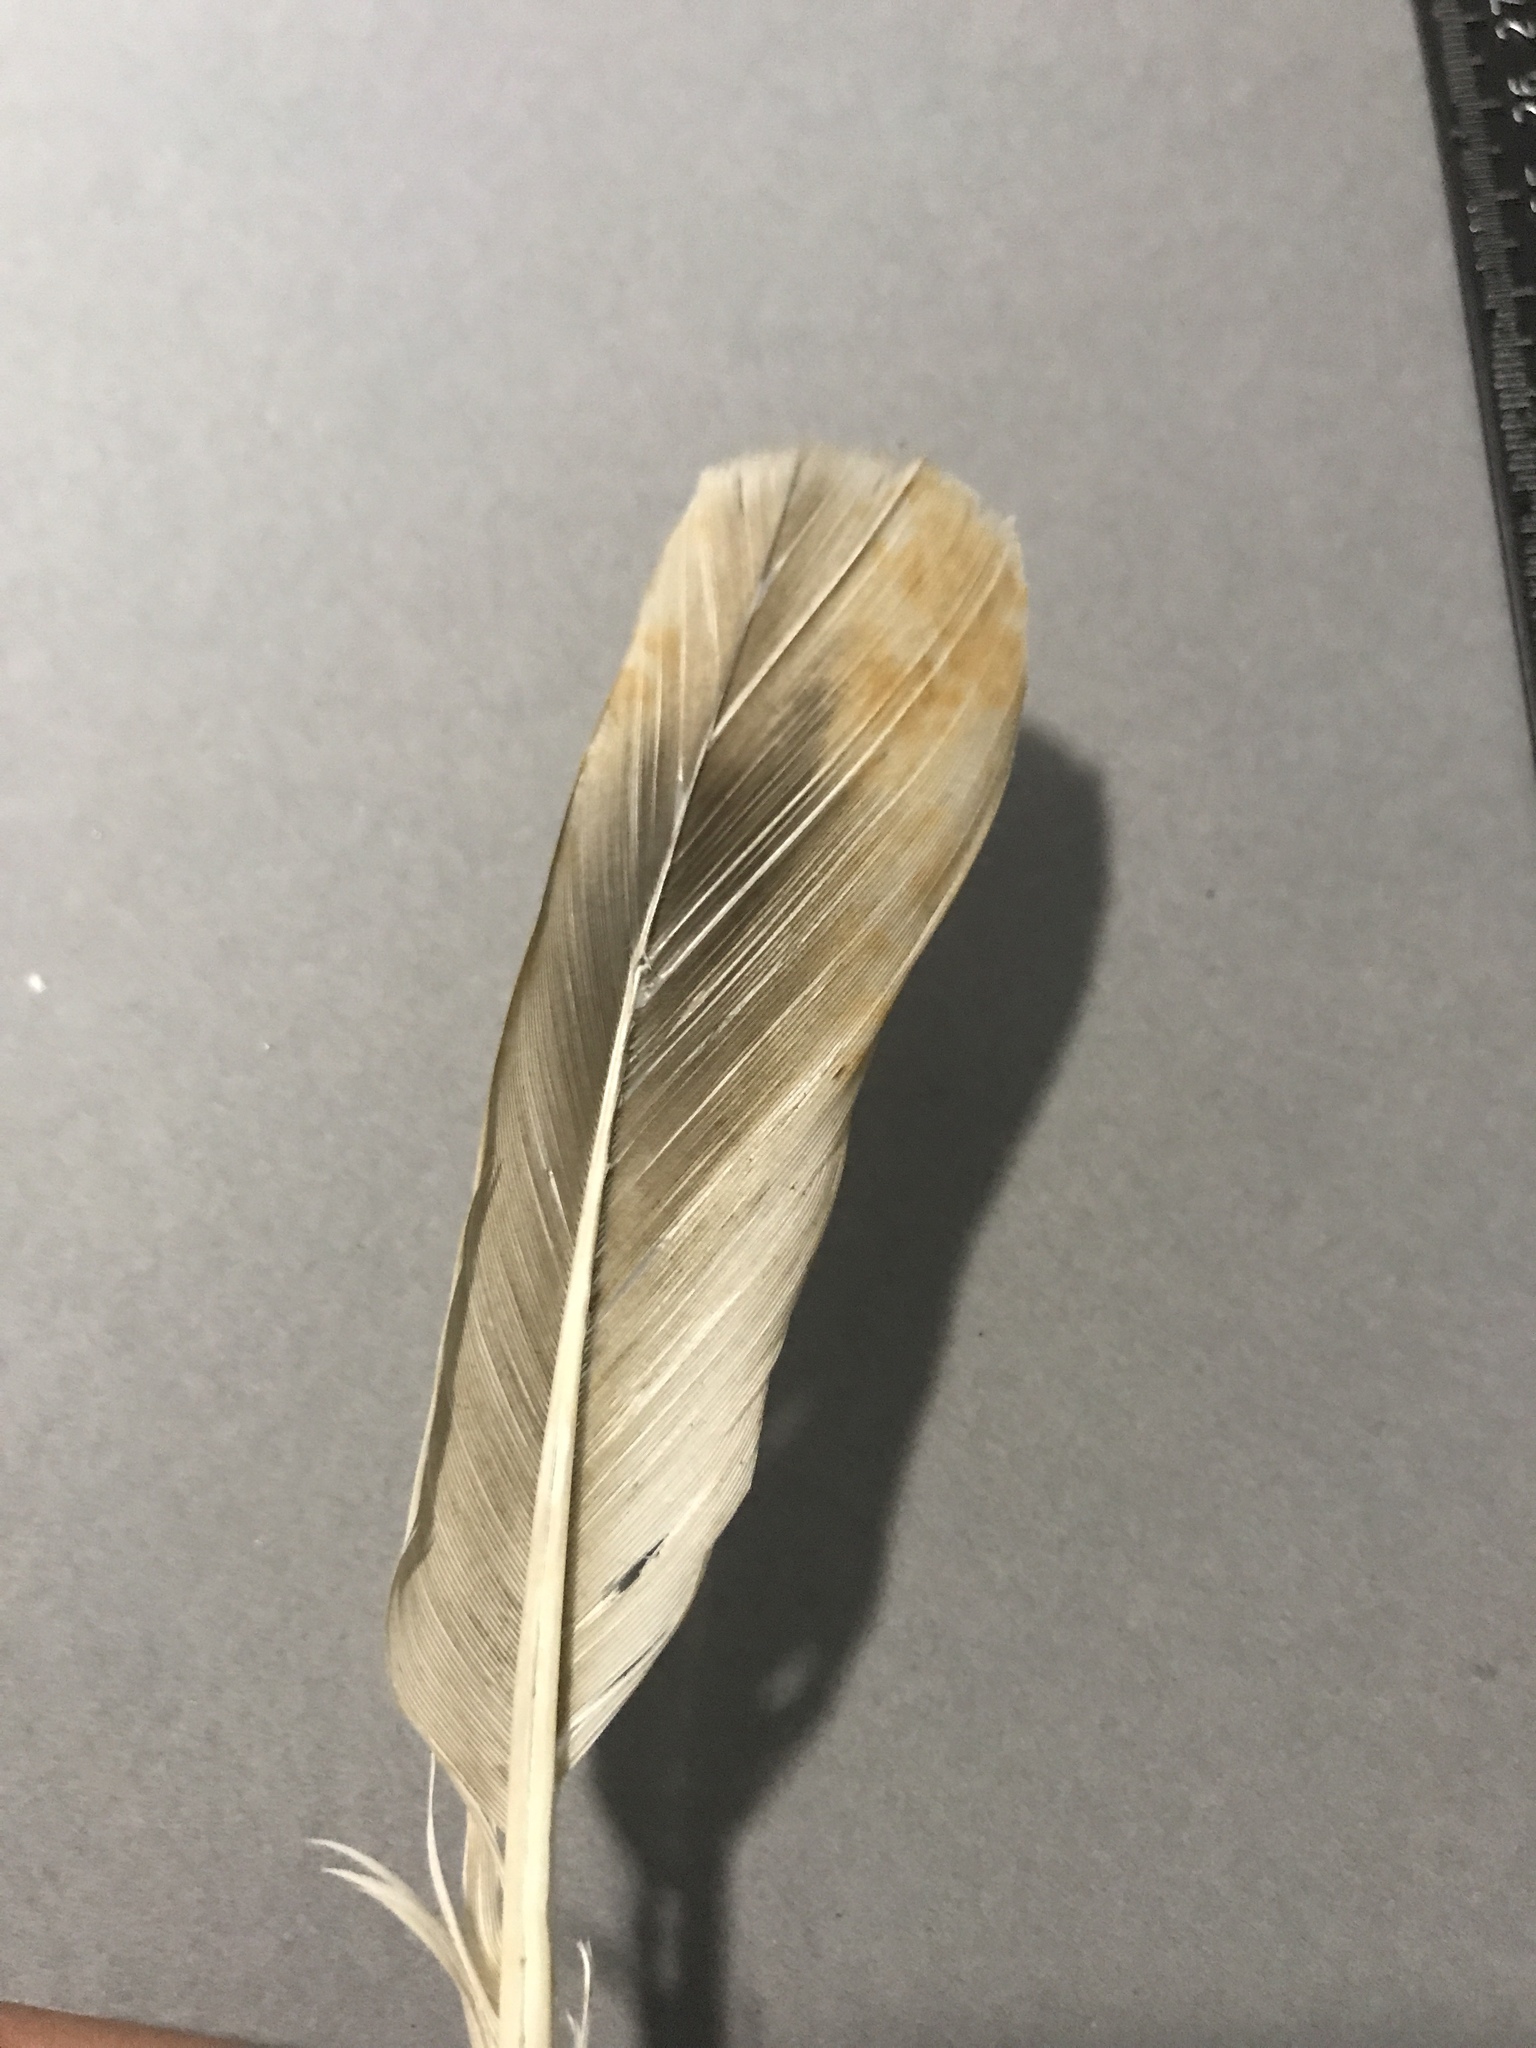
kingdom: Animalia
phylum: Chordata
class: Aves
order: Columbiformes
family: Columbidae
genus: Columba
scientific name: Columba livia
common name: Rock pigeon
